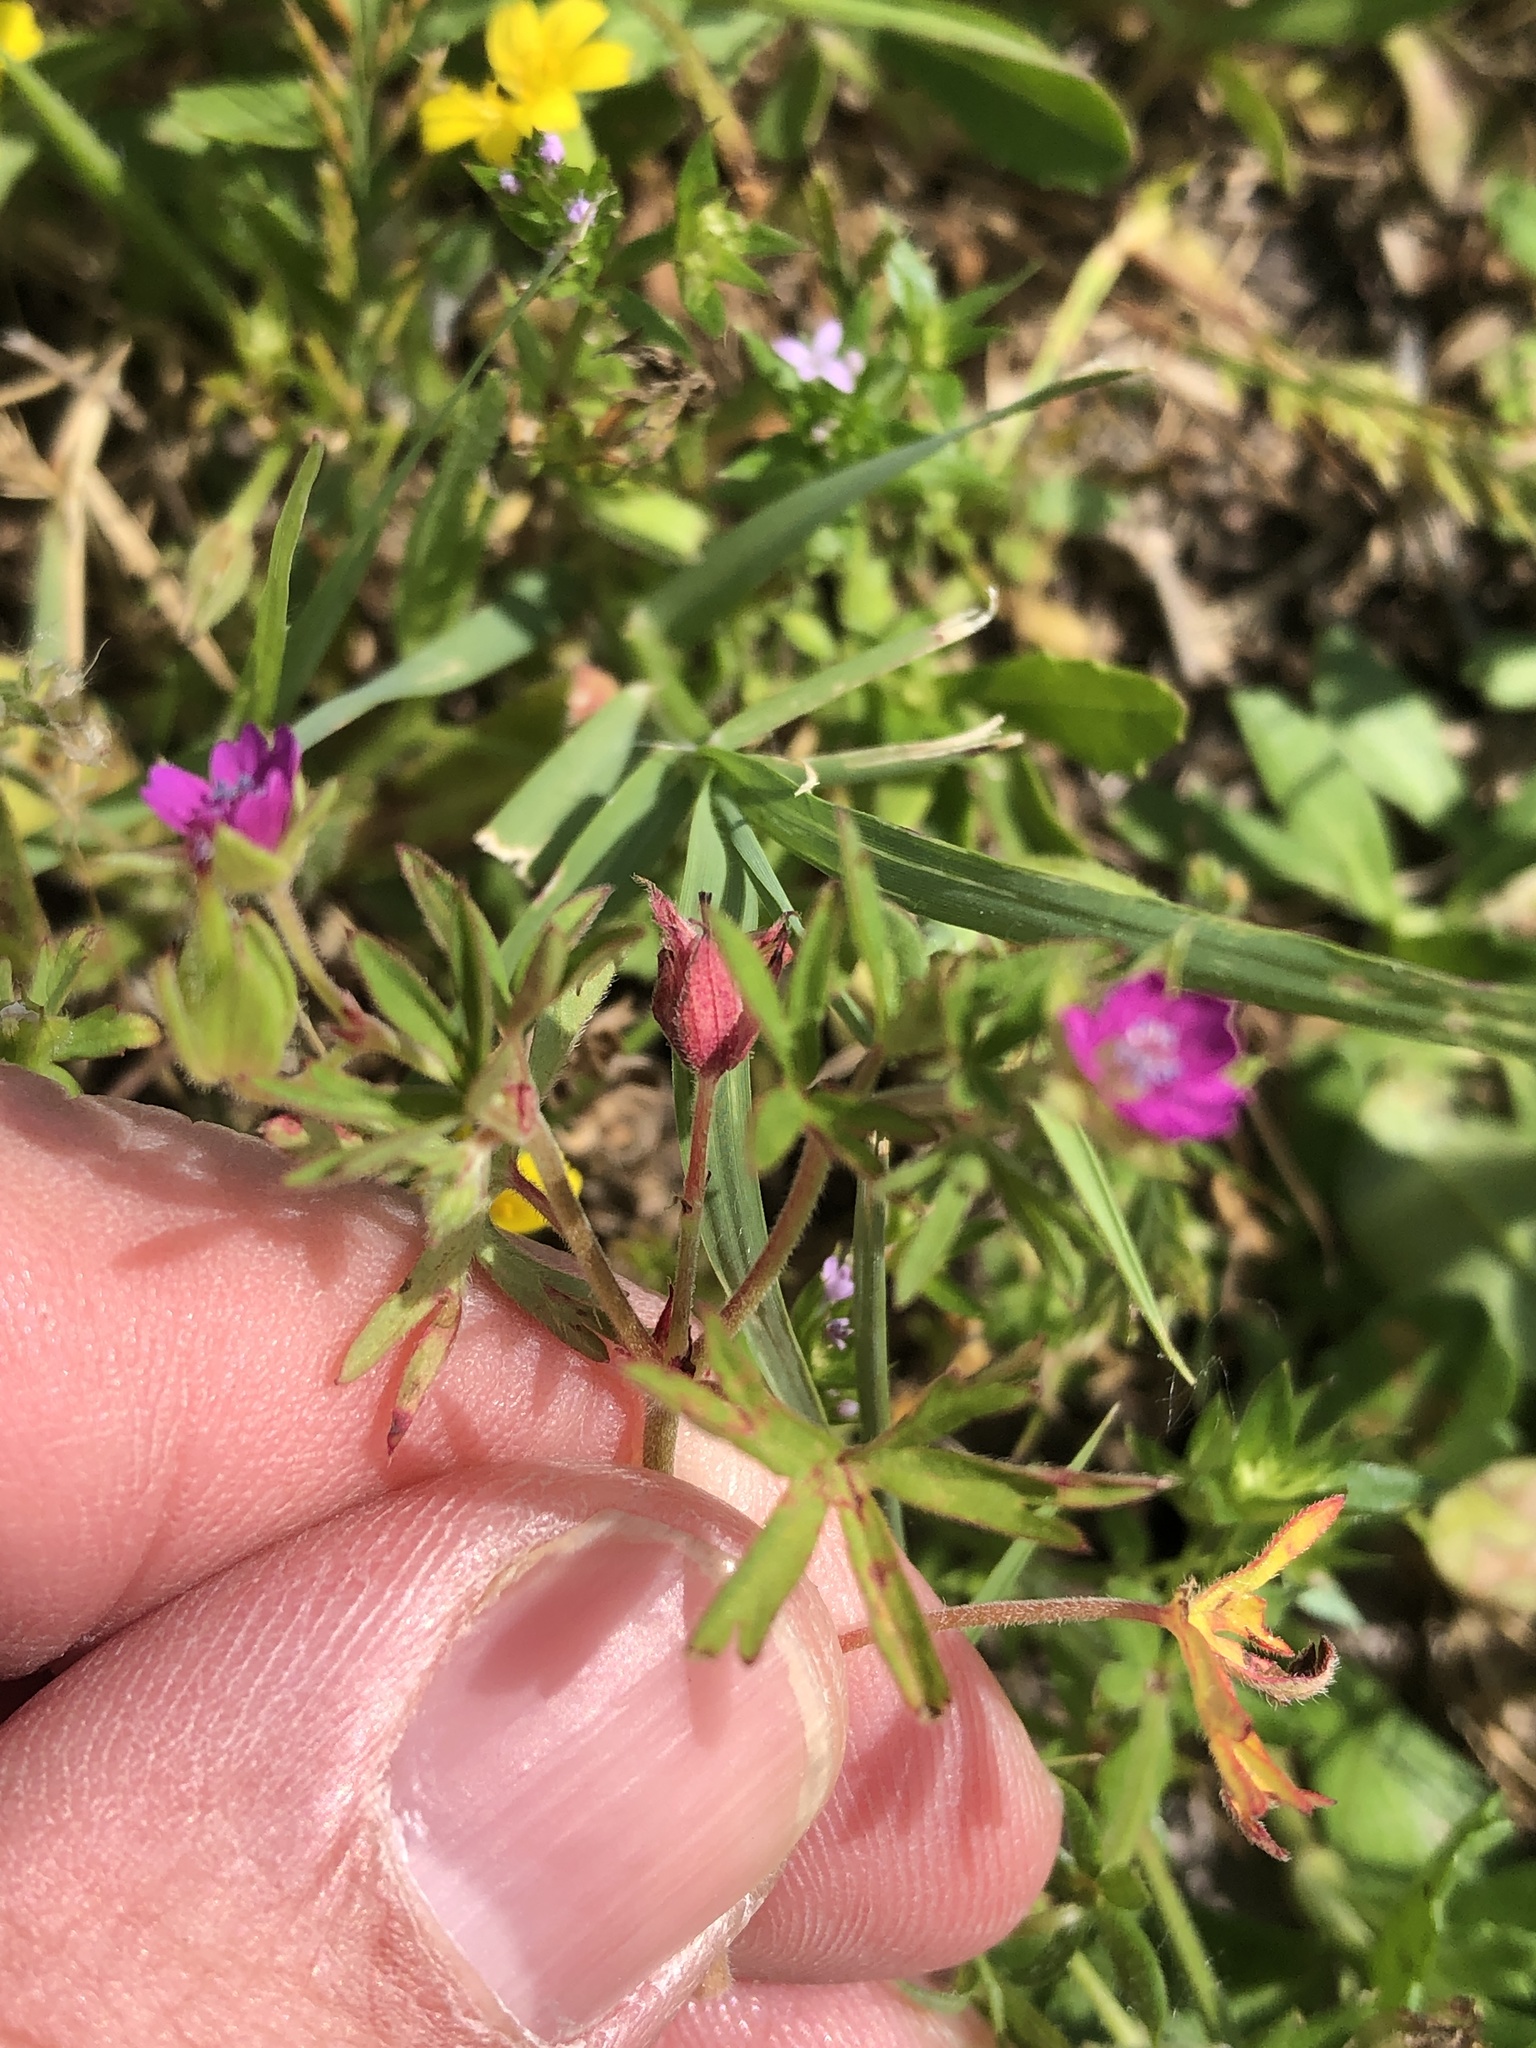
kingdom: Plantae
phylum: Tracheophyta
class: Magnoliopsida
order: Geraniales
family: Geraniaceae
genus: Geranium
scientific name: Geranium dissectum
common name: Cut-leaved crane's-bill
